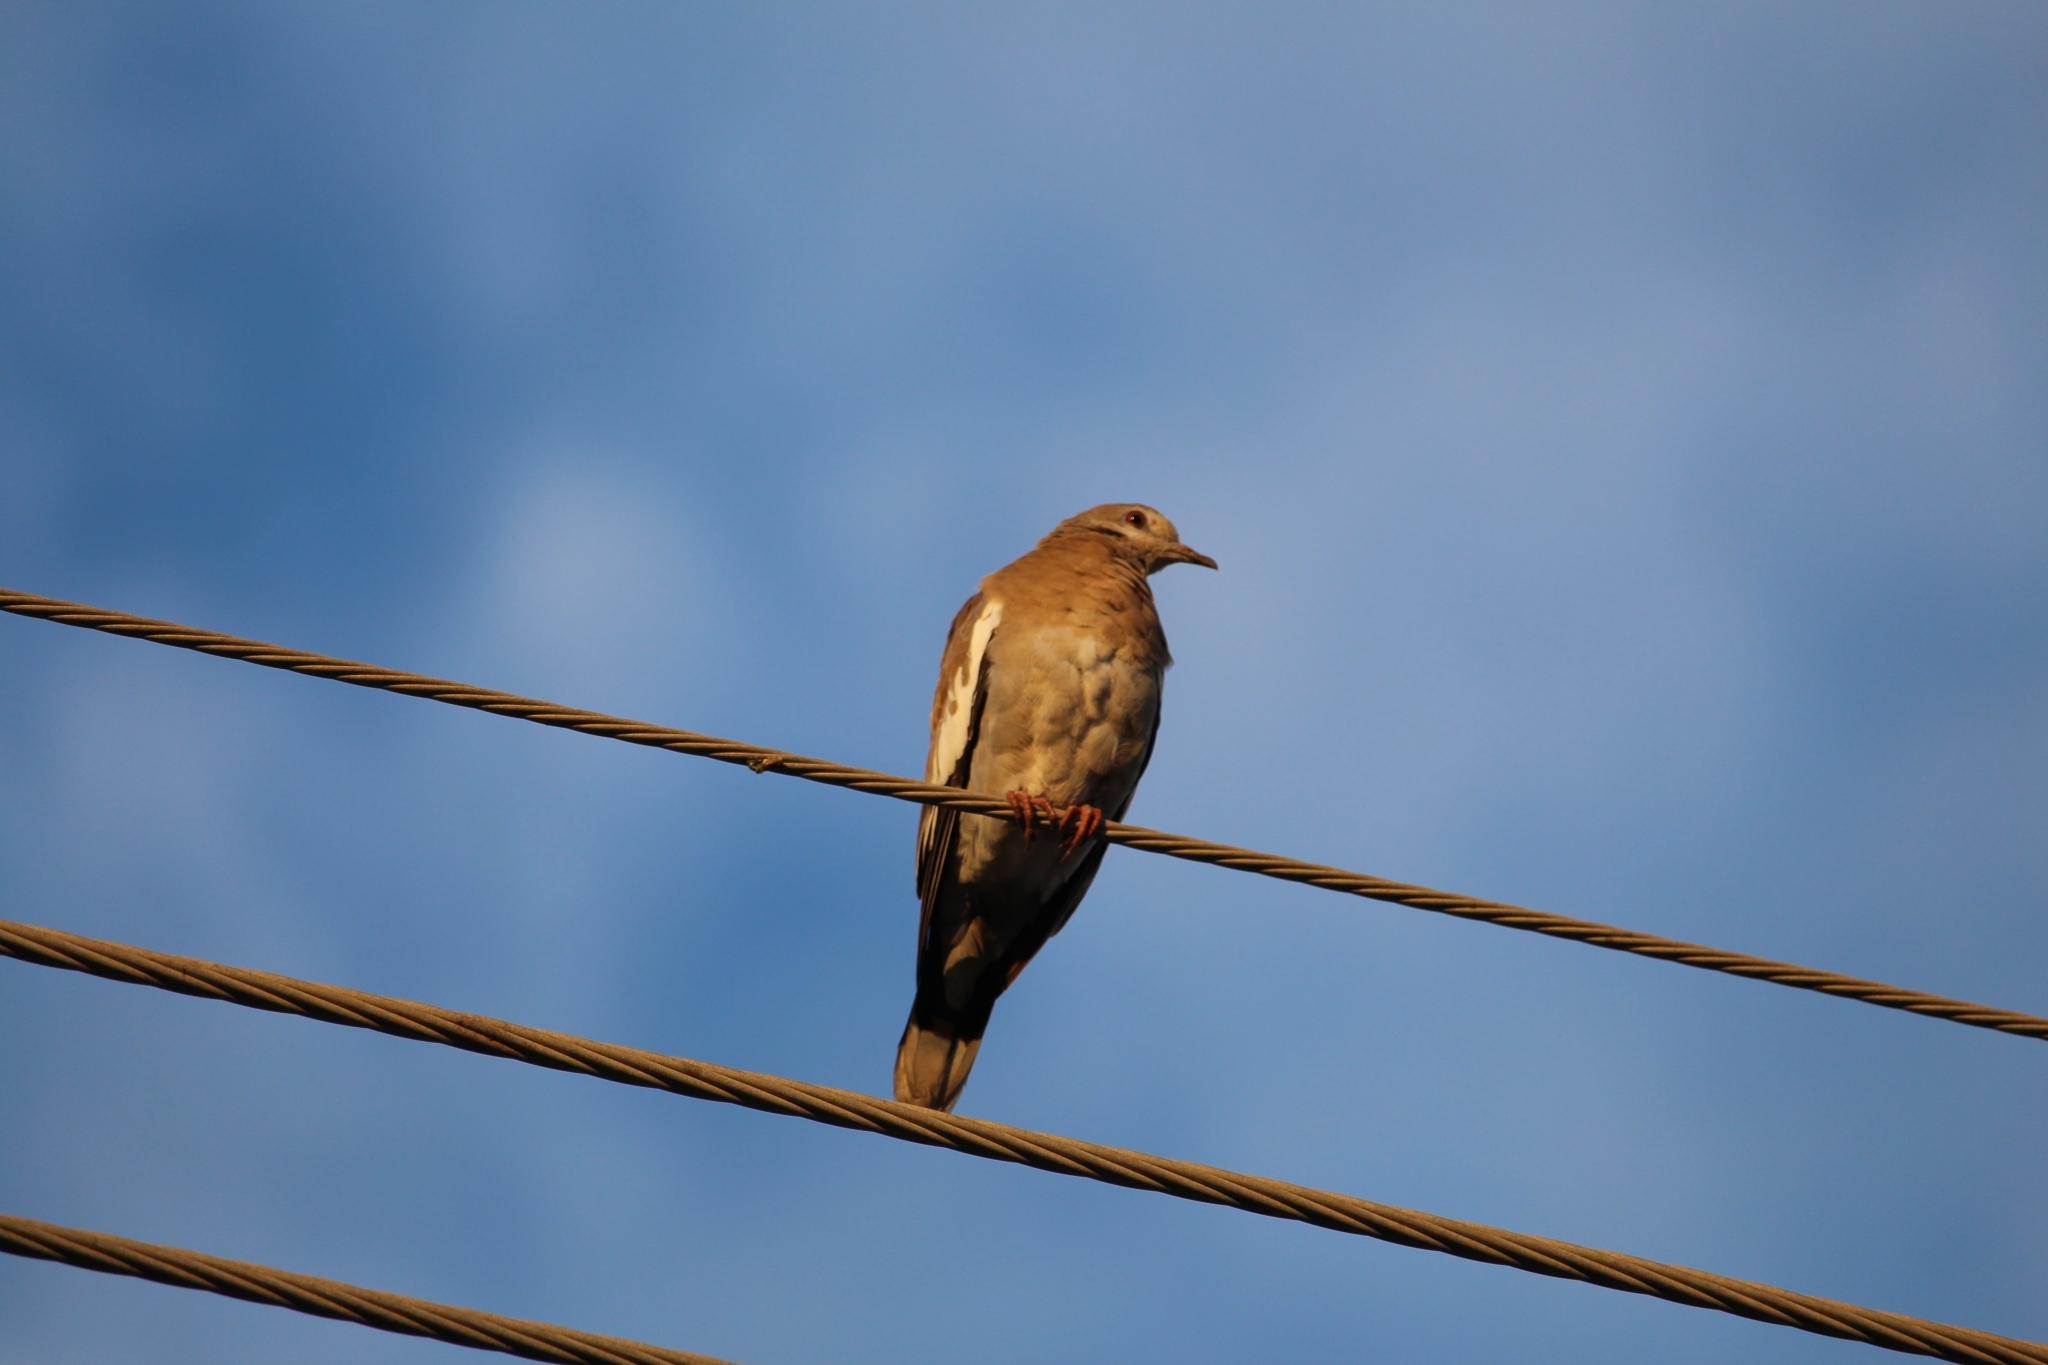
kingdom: Animalia
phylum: Chordata
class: Aves
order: Columbiformes
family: Columbidae
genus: Zenaida
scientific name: Zenaida asiatica
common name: White-winged dove
